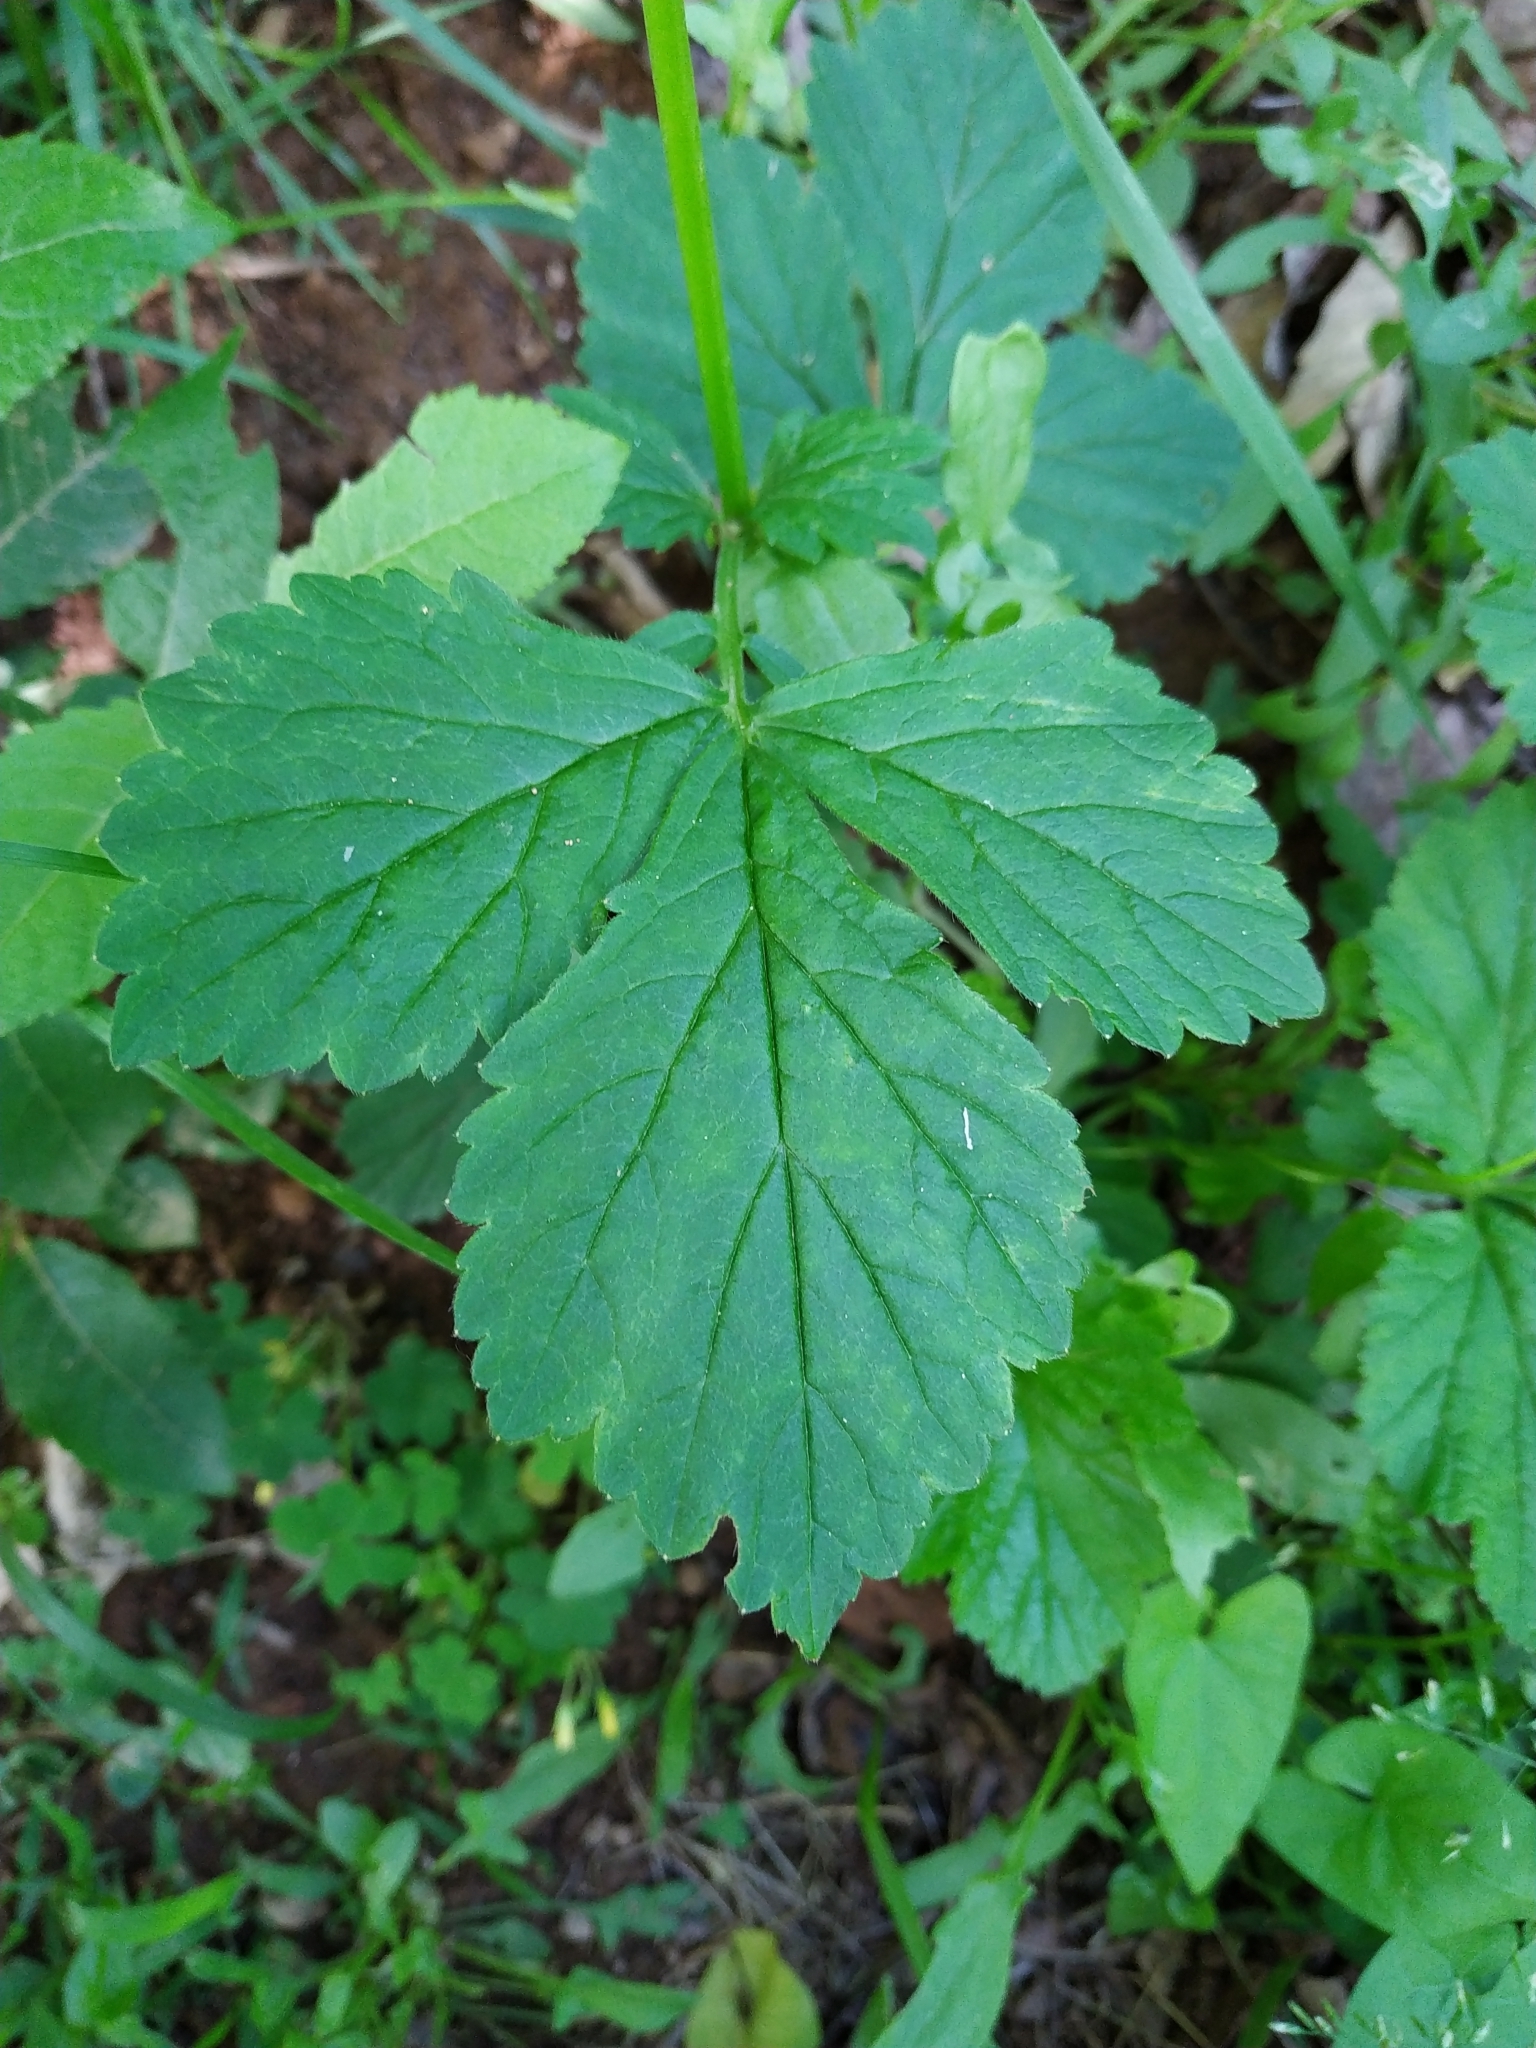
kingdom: Plantae
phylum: Tracheophyta
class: Magnoliopsida
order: Rosales
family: Rosaceae
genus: Geum
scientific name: Geum urbanum
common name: Wood avens
